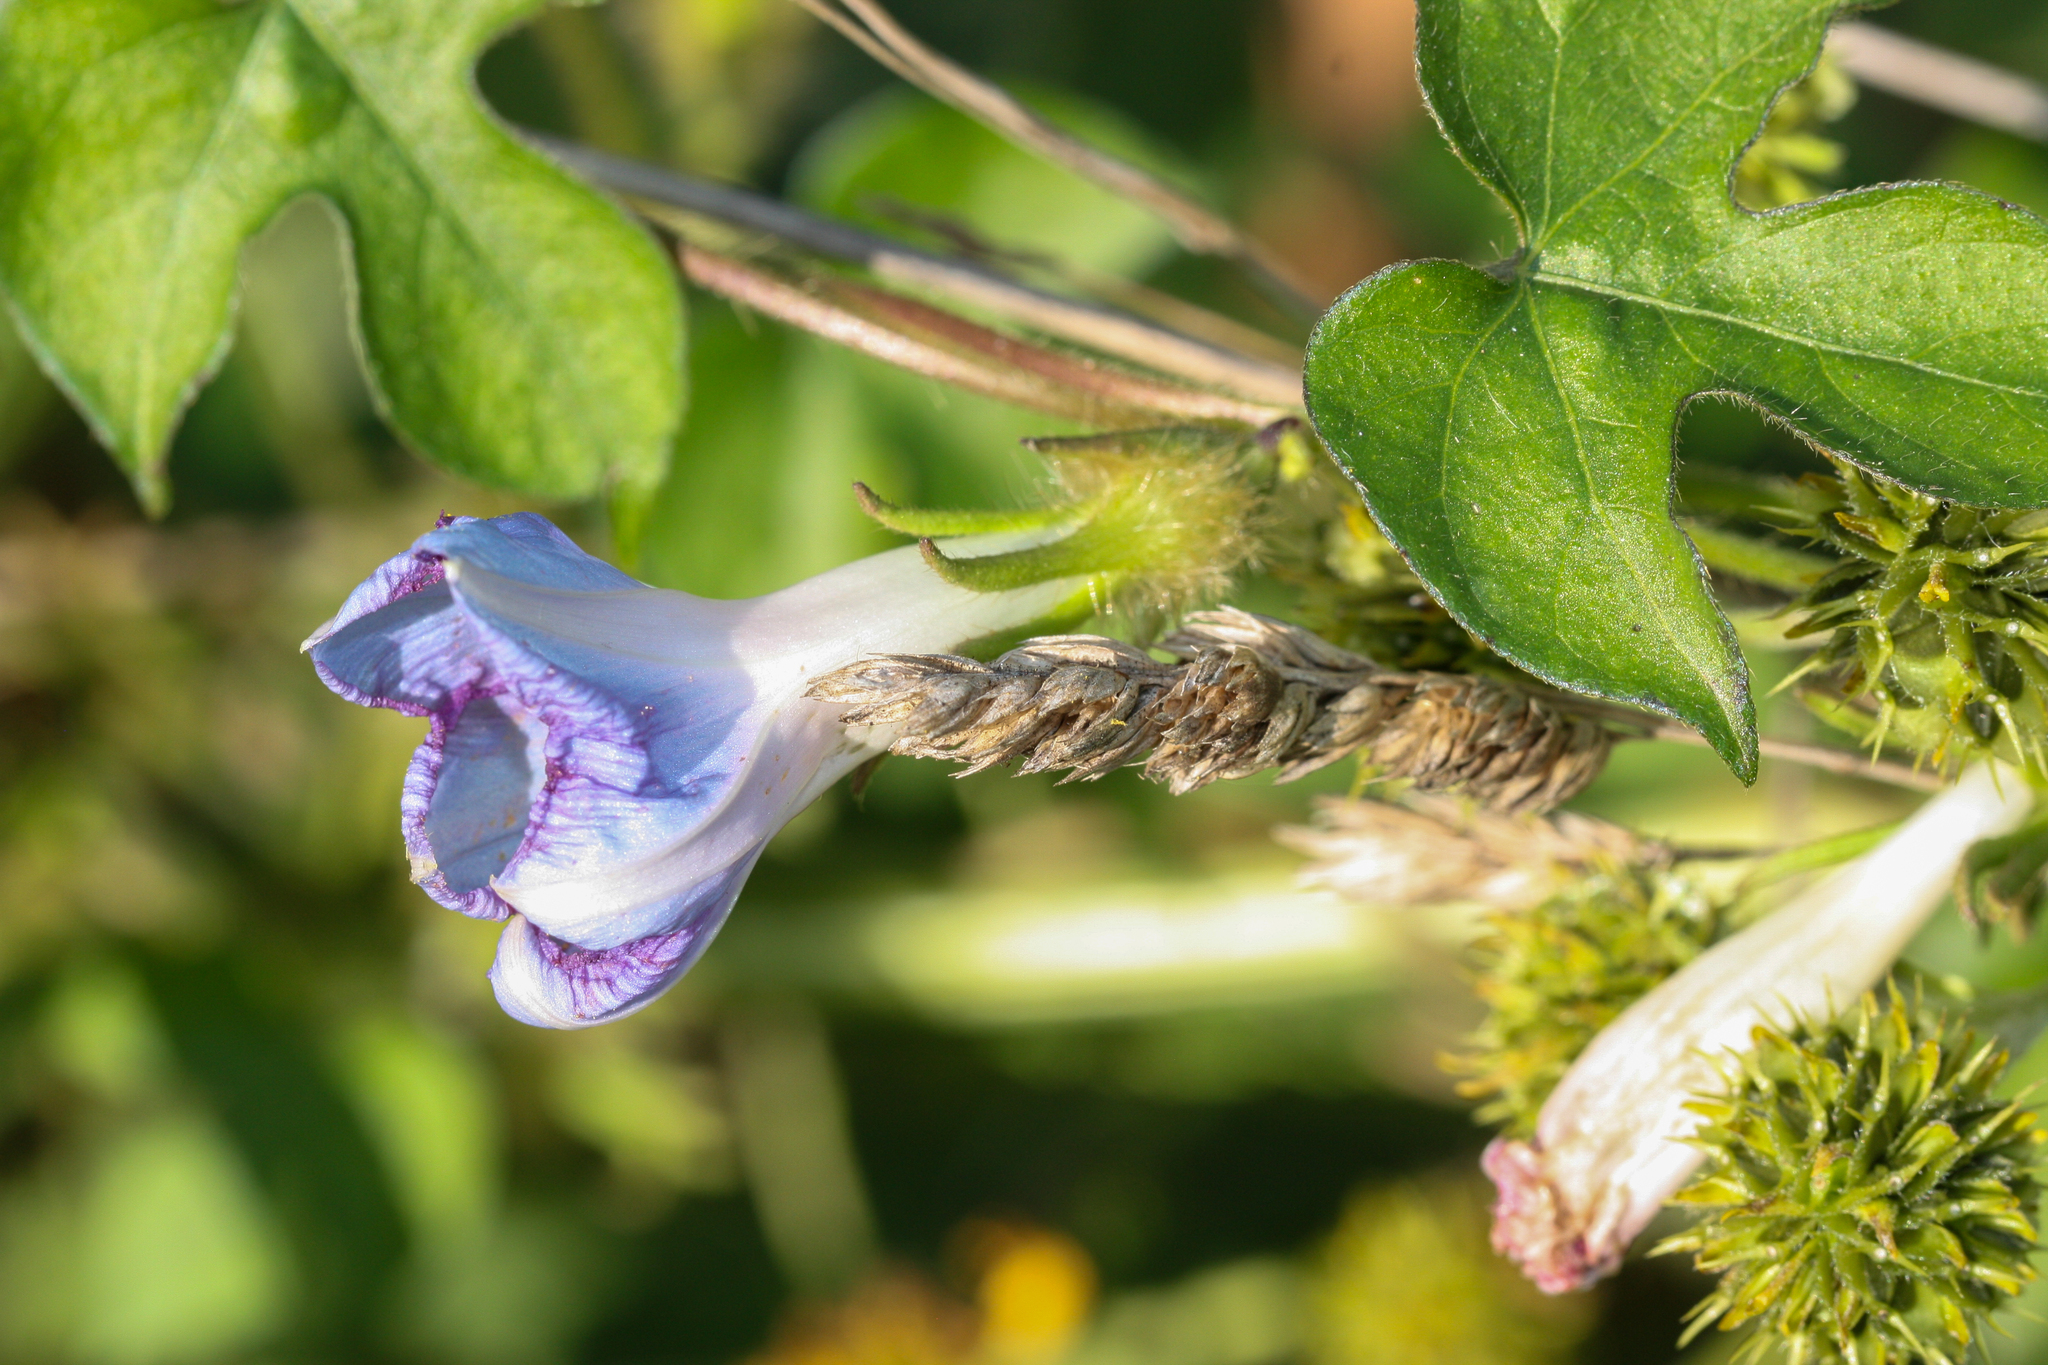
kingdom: Plantae
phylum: Tracheophyta
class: Magnoliopsida
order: Solanales
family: Convolvulaceae
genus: Ipomoea
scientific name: Ipomoea hederacea
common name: Ivy-leaved morning-glory
